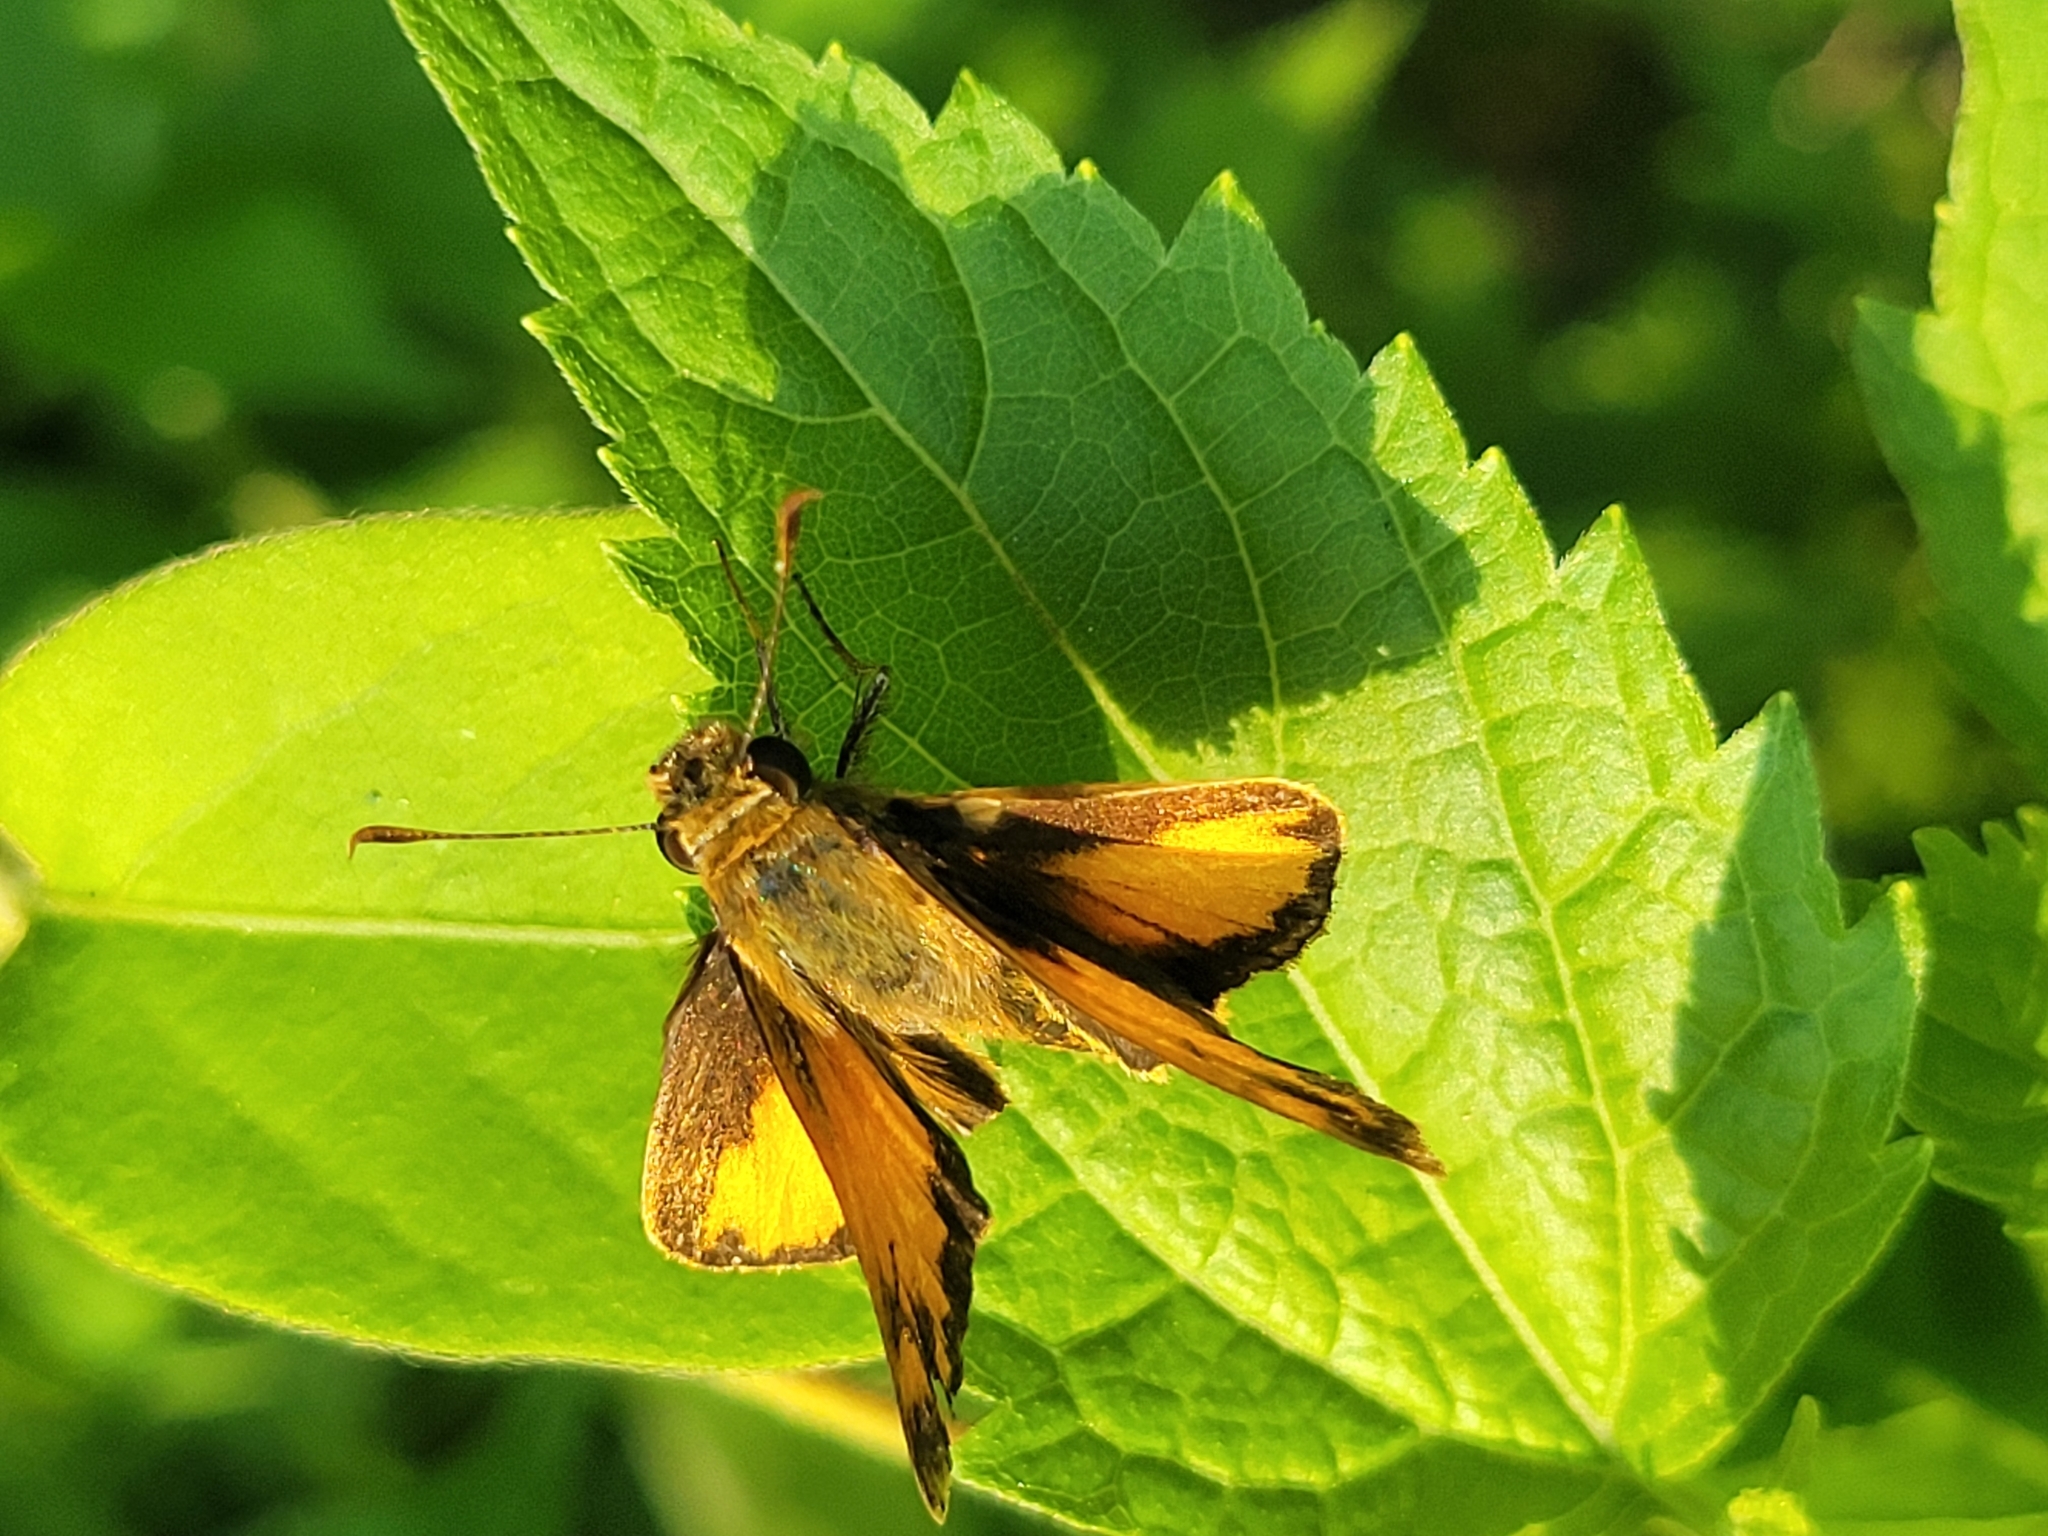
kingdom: Animalia
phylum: Arthropoda
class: Insecta
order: Lepidoptera
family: Hesperiidae
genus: Lon
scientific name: Lon zabulon
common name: Zabulon skipper
